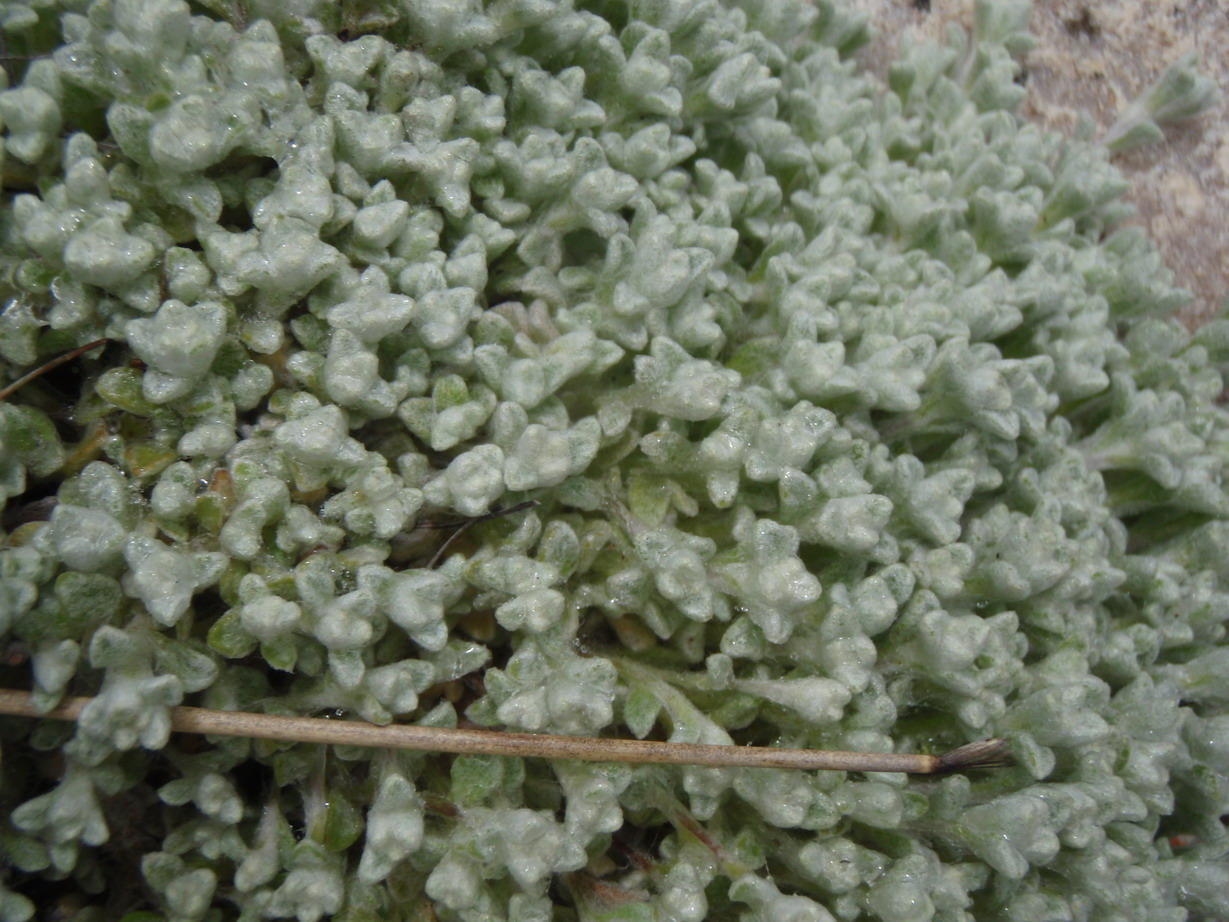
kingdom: Plantae
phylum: Tracheophyta
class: Magnoliopsida
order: Asterales
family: Asteraceae
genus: Helichrysum
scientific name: Helichrysum saxicola
